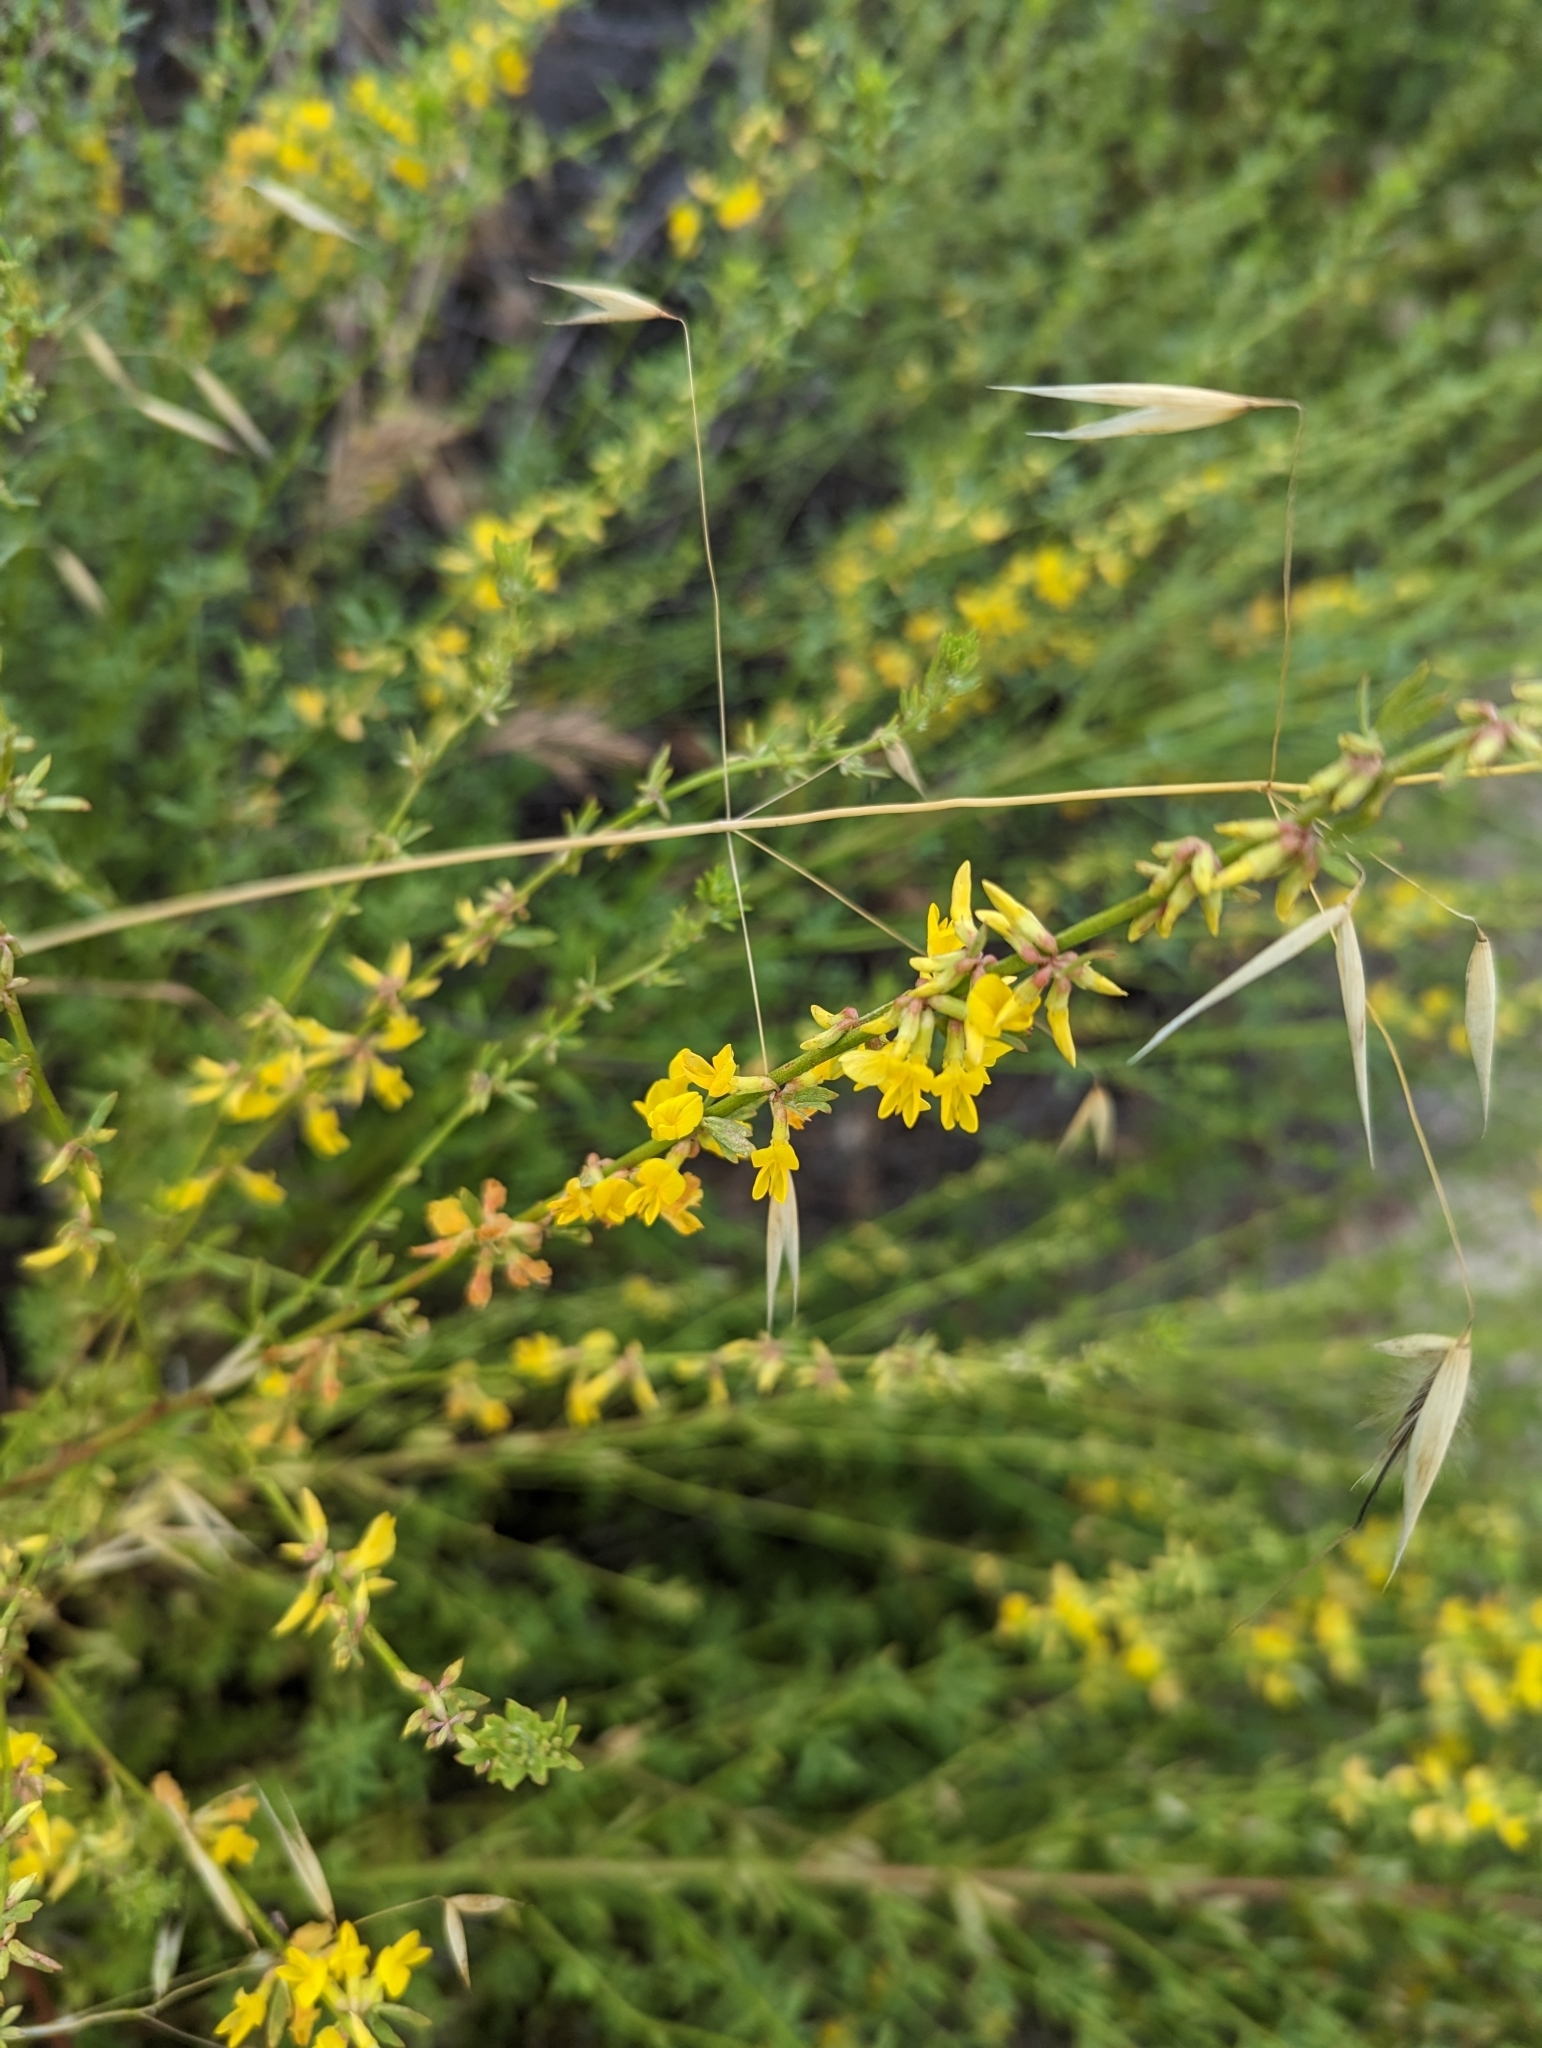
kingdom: Plantae
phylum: Tracheophyta
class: Magnoliopsida
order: Fabales
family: Fabaceae
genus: Acmispon
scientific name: Acmispon glaber
